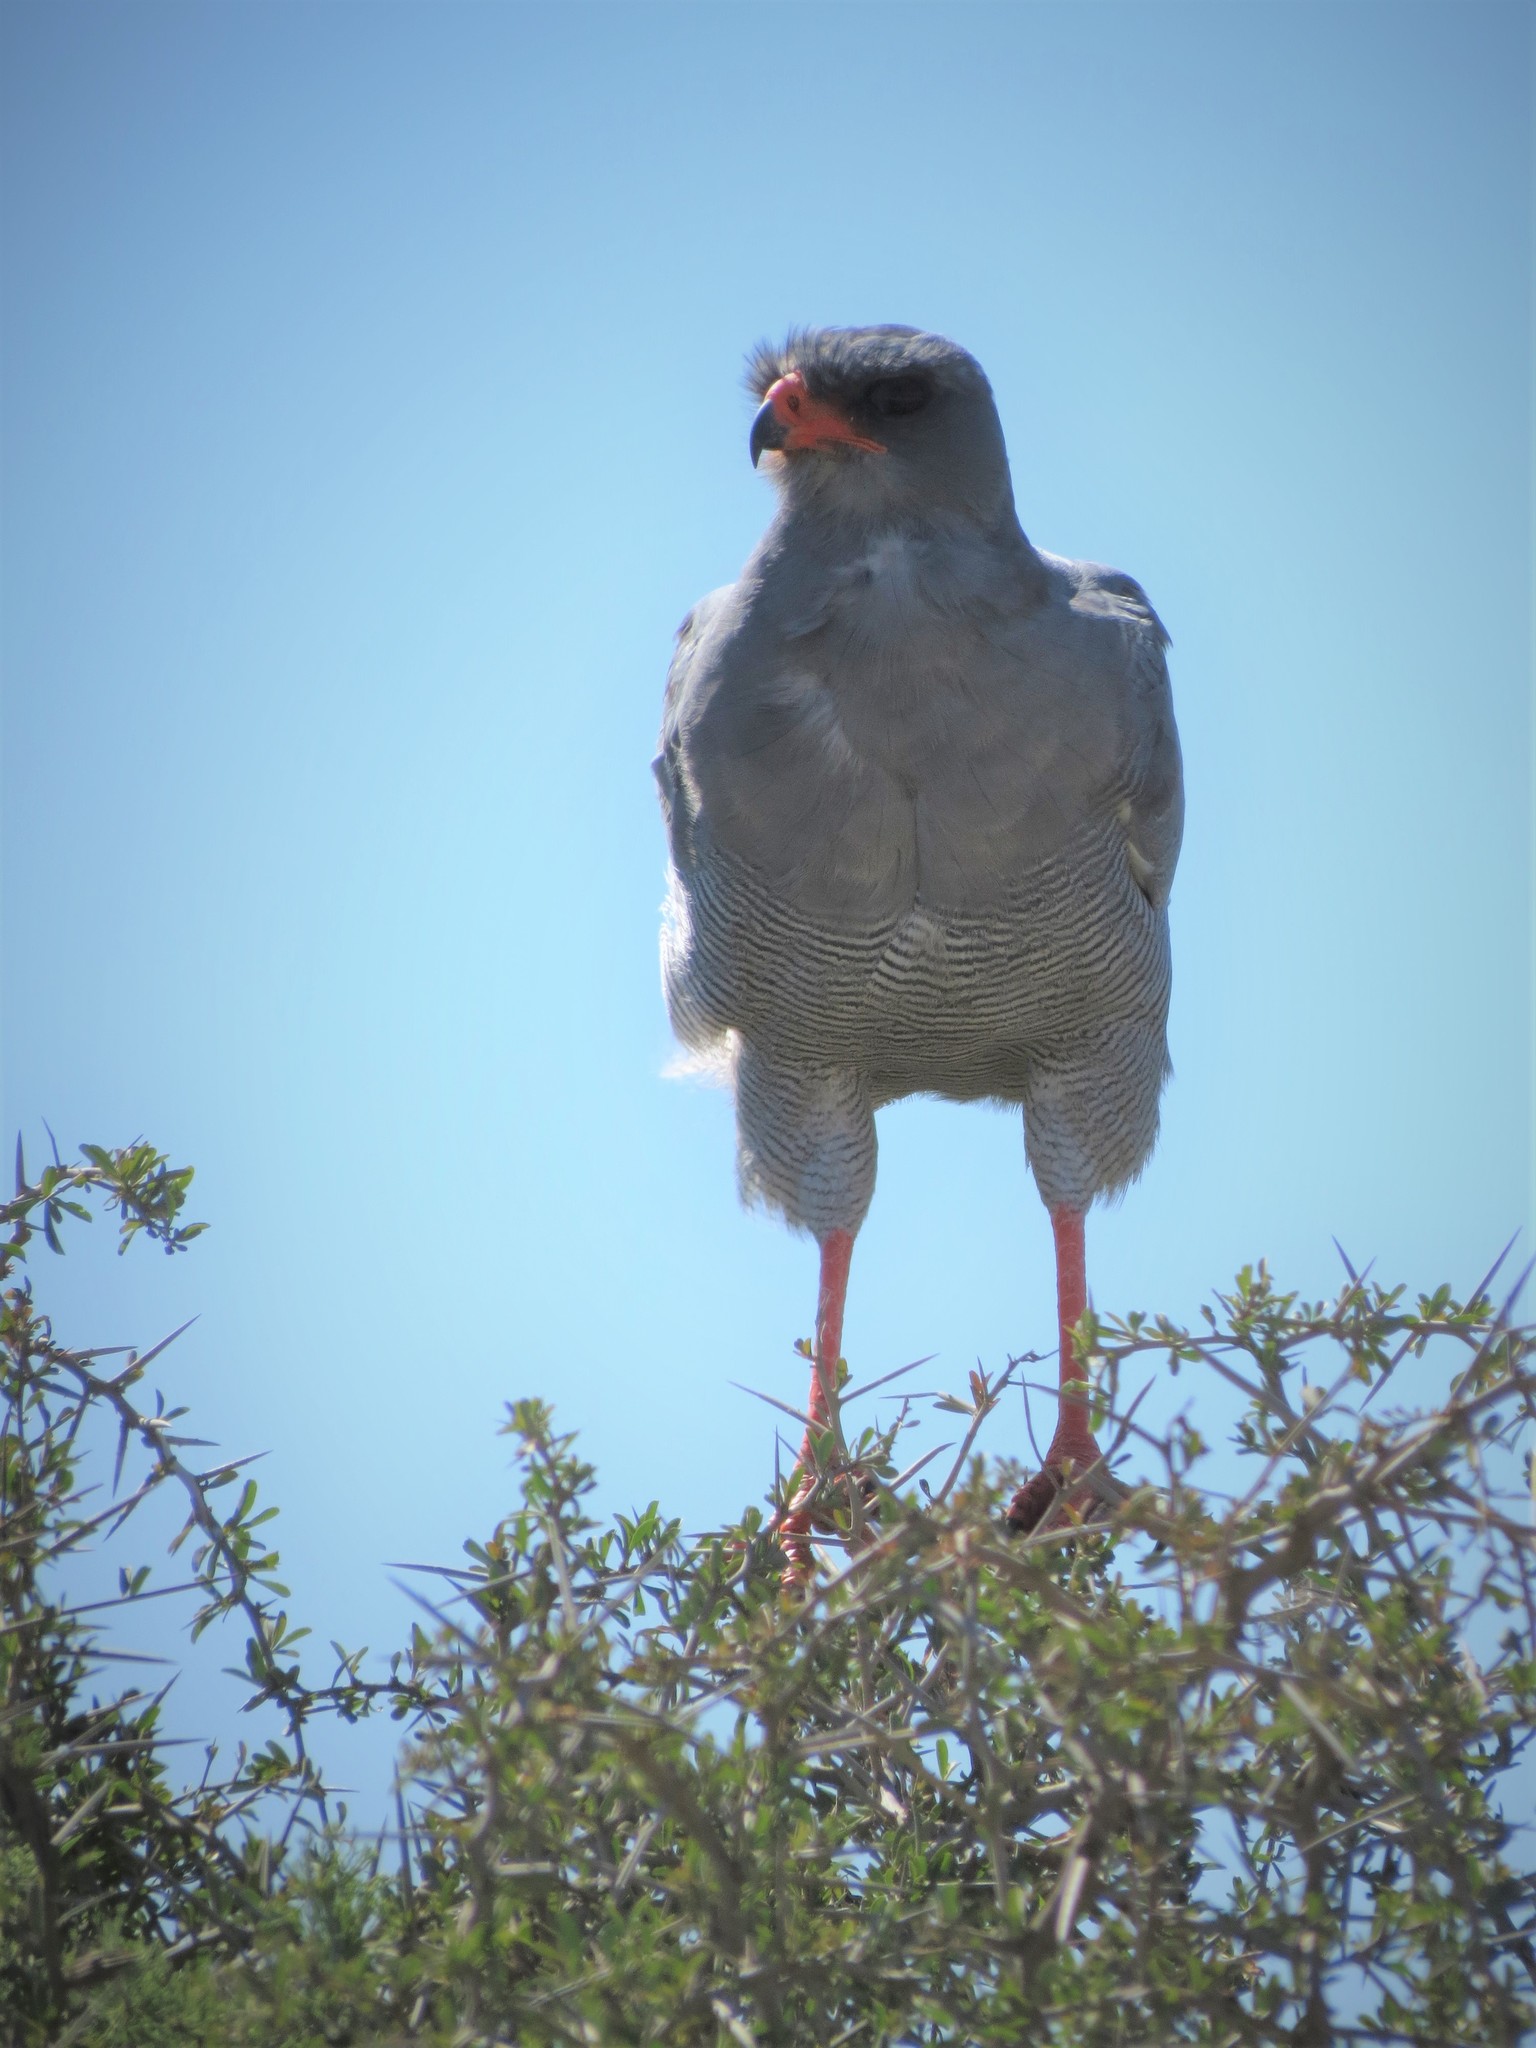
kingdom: Animalia
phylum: Chordata
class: Aves
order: Accipitriformes
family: Accipitridae
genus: Melierax
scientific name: Melierax canorus
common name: Pale chanting-goshawk
